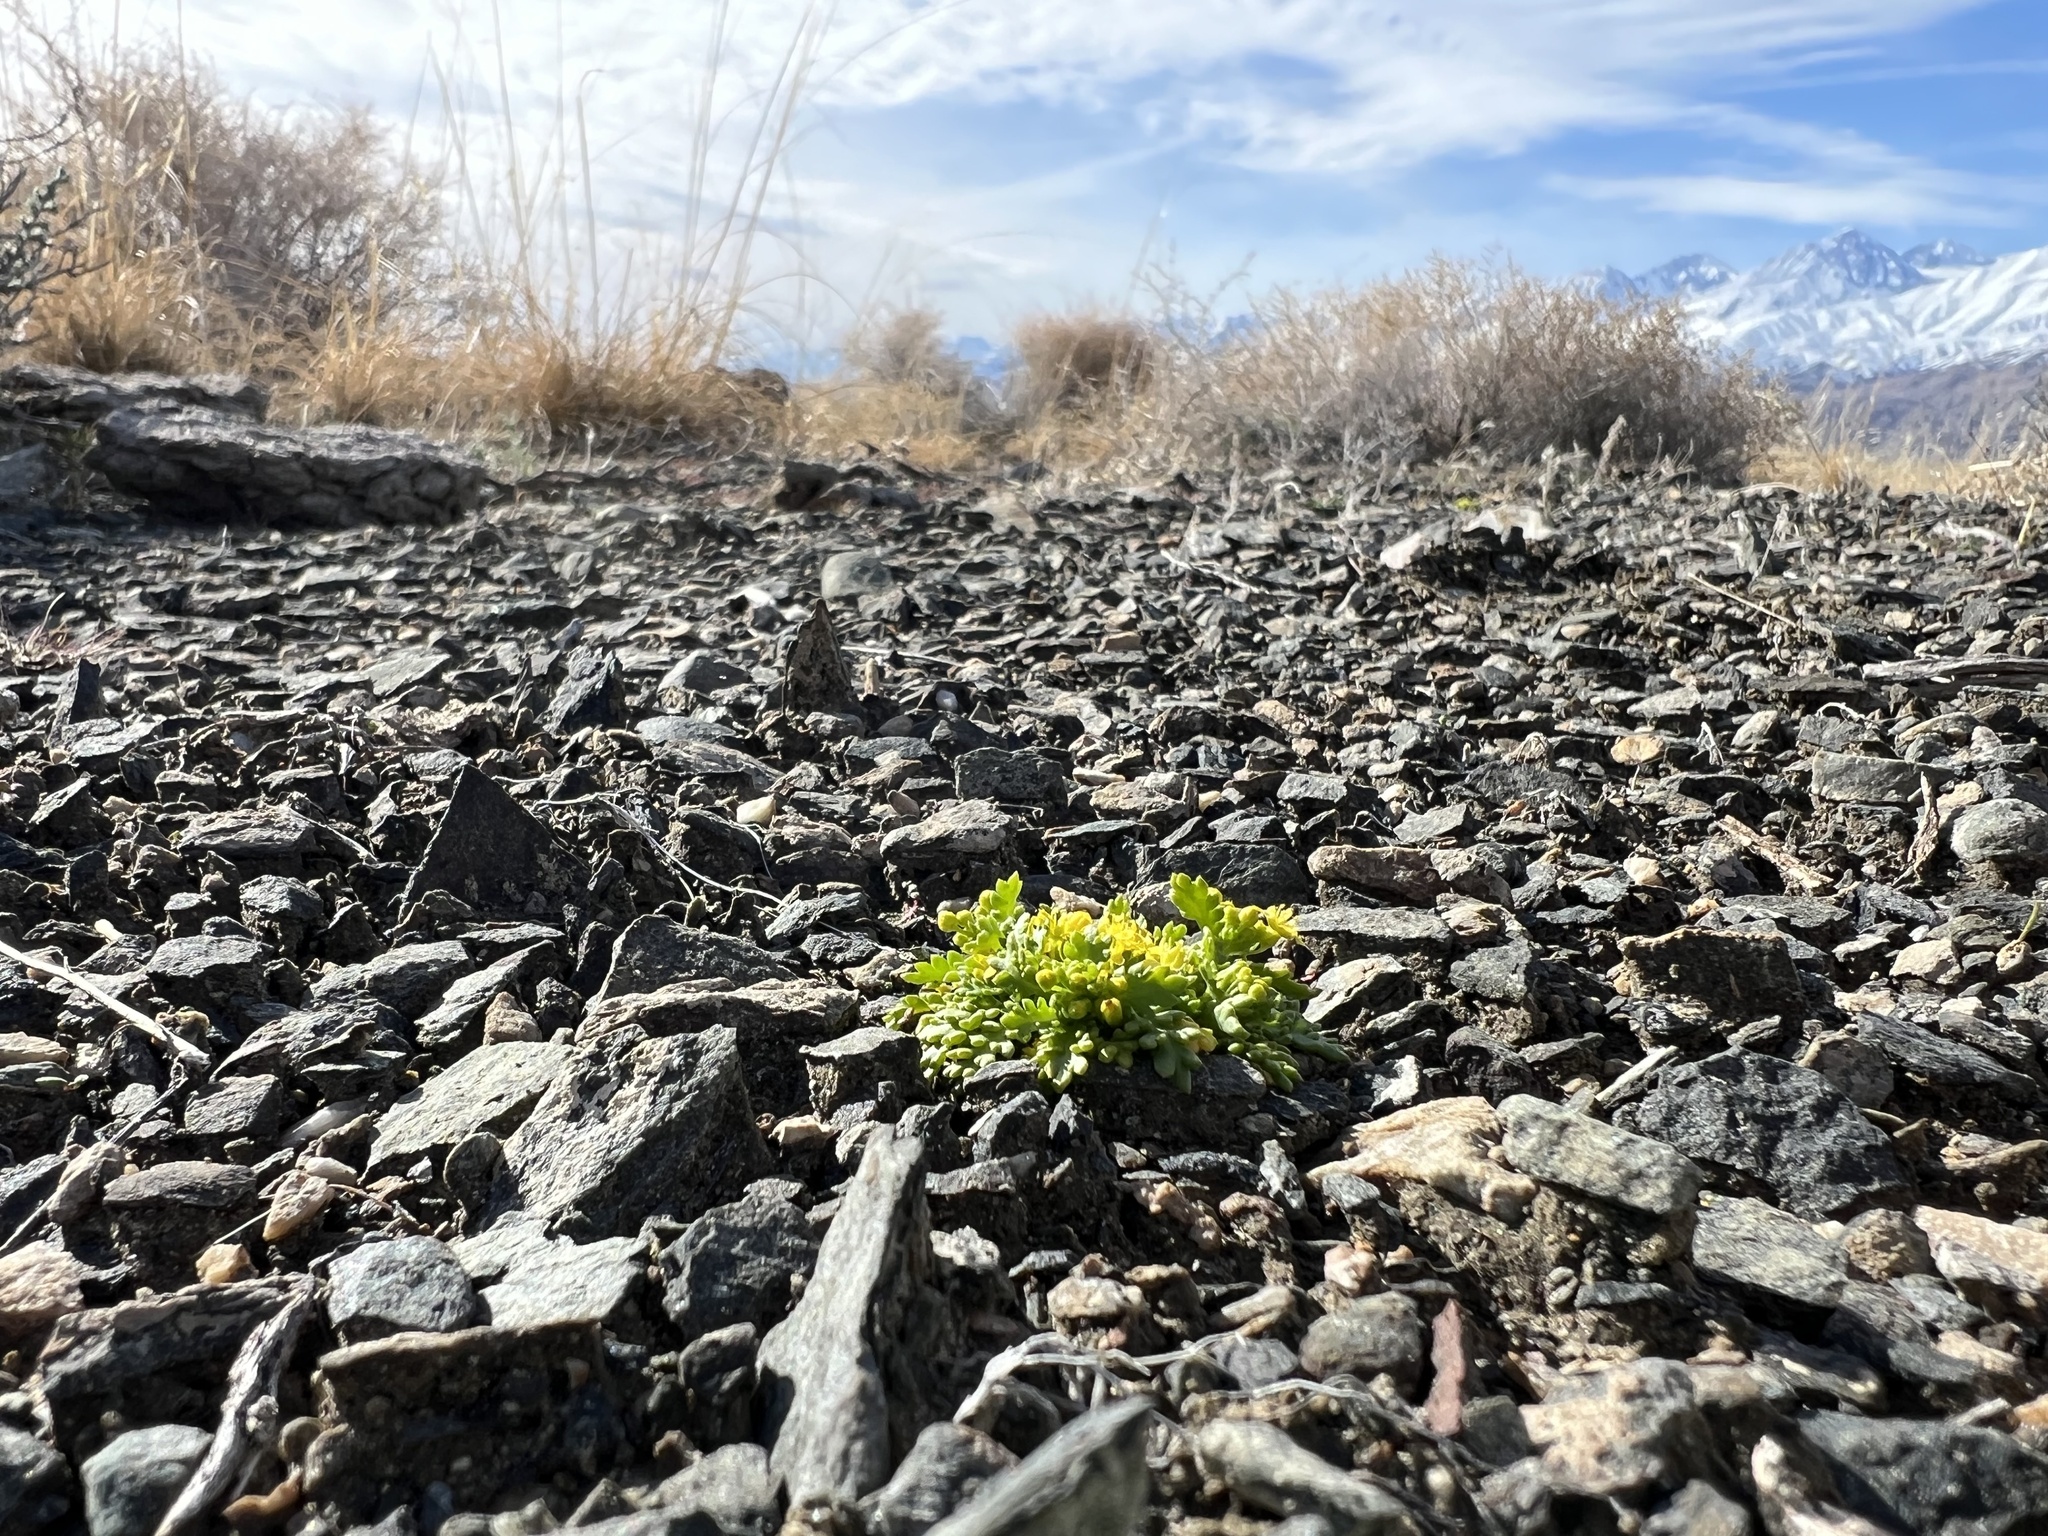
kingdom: Plantae
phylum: Tracheophyta
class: Magnoliopsida
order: Brassicales
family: Brassicaceae
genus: Lepidium
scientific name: Lepidium flavum
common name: Yellow pepperwort
